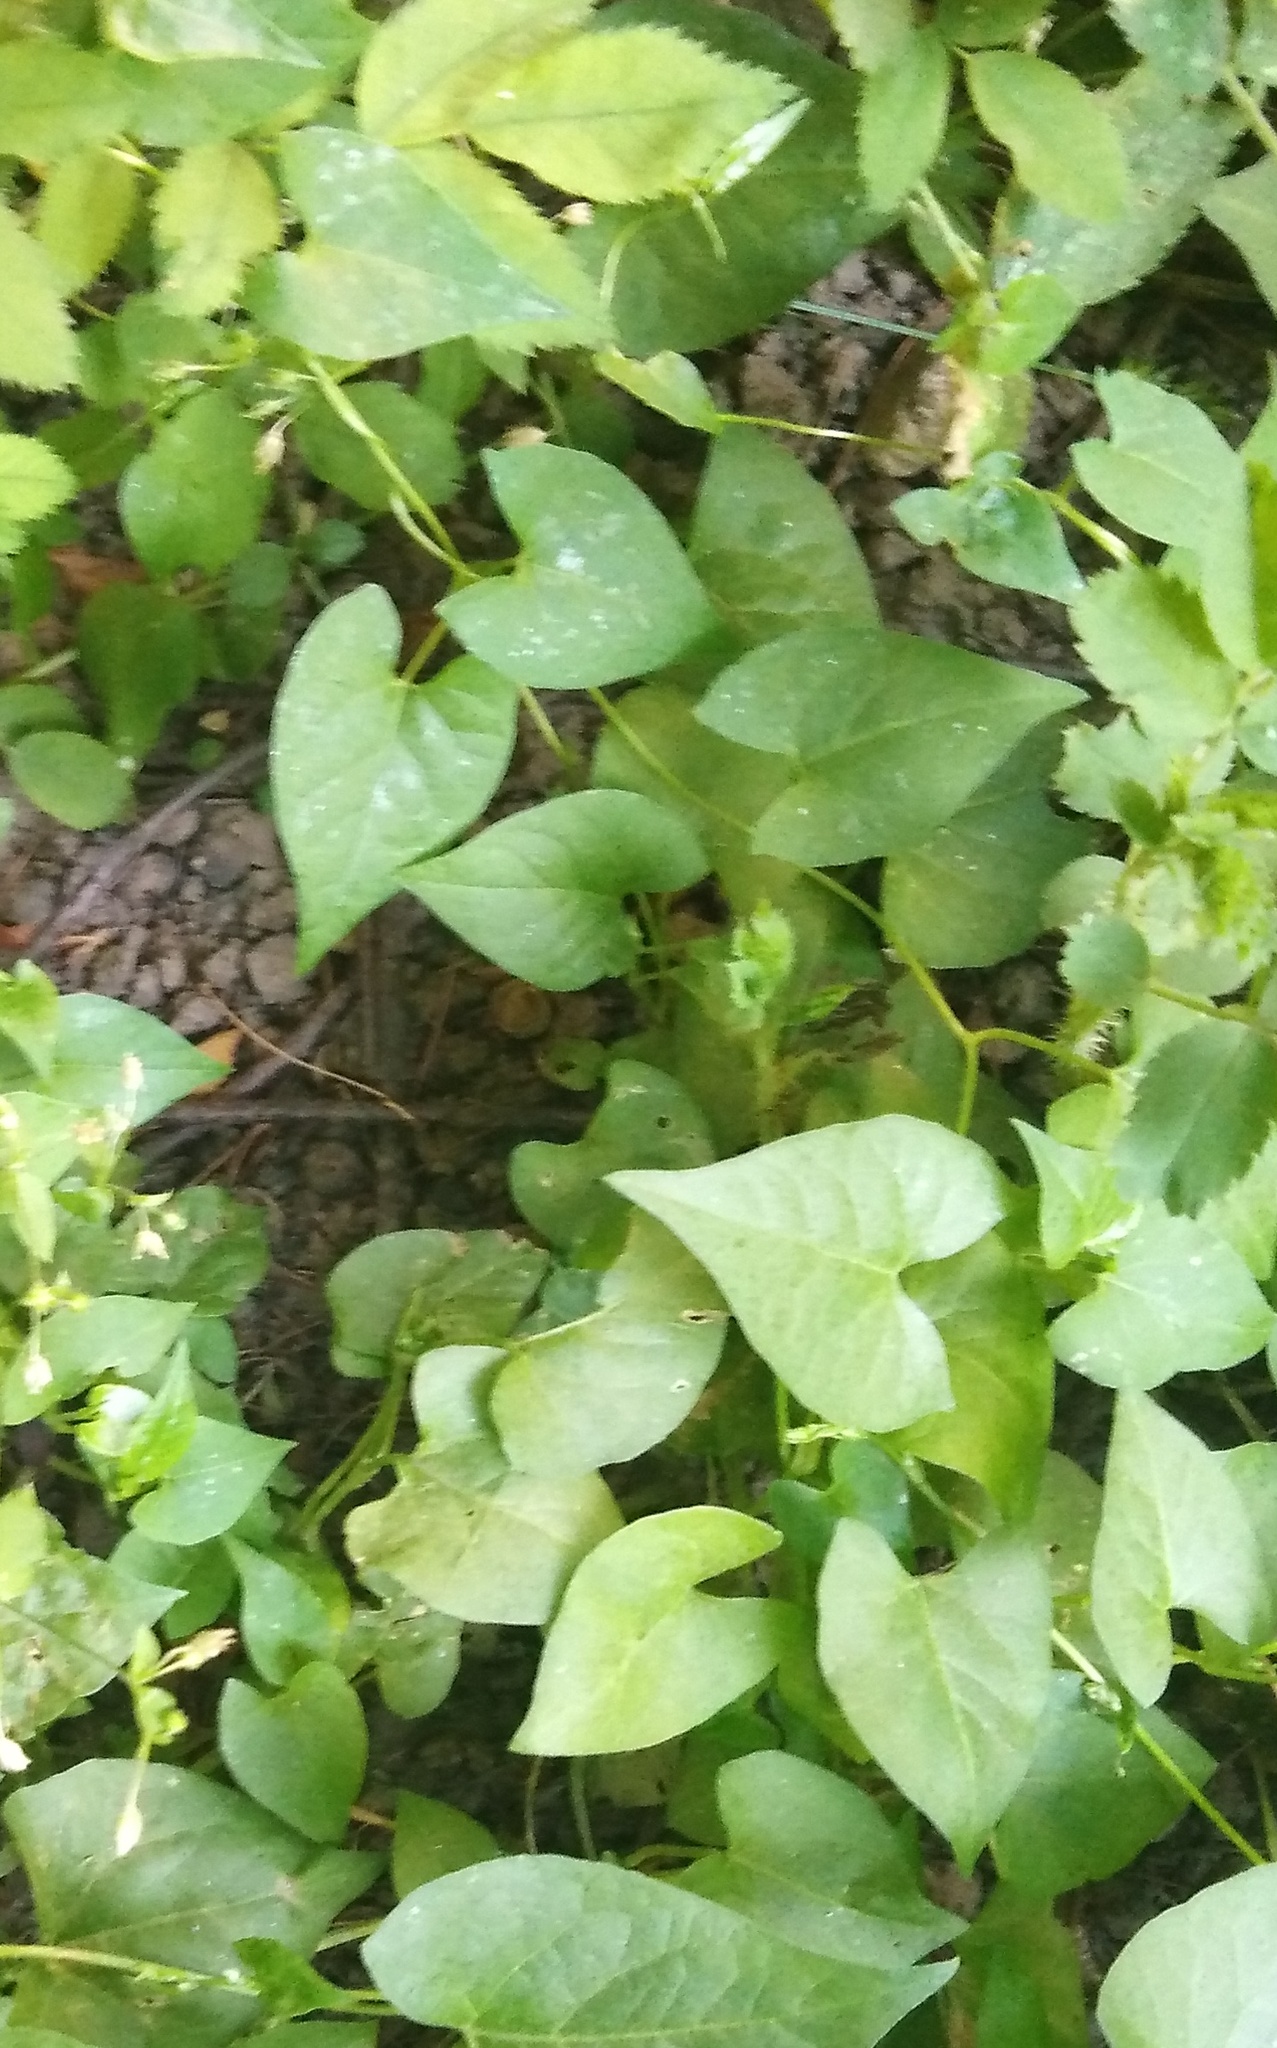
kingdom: Plantae
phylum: Tracheophyta
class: Magnoliopsida
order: Caryophyllales
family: Polygonaceae
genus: Fallopia
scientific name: Fallopia convolvulus
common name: Black bindweed
